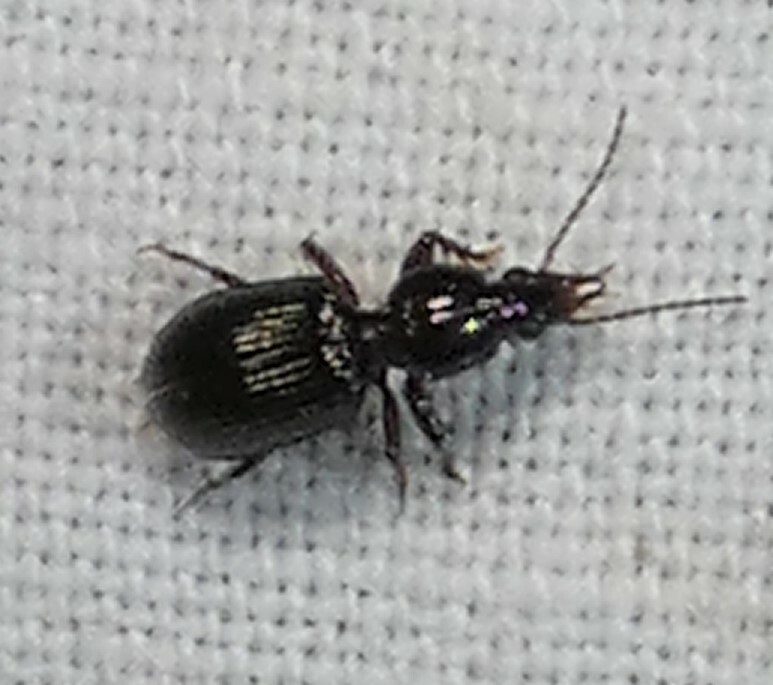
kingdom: Animalia
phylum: Arthropoda
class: Insecta
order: Coleoptera
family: Carabidae
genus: Ardistomis
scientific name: Ardistomis schaumii
